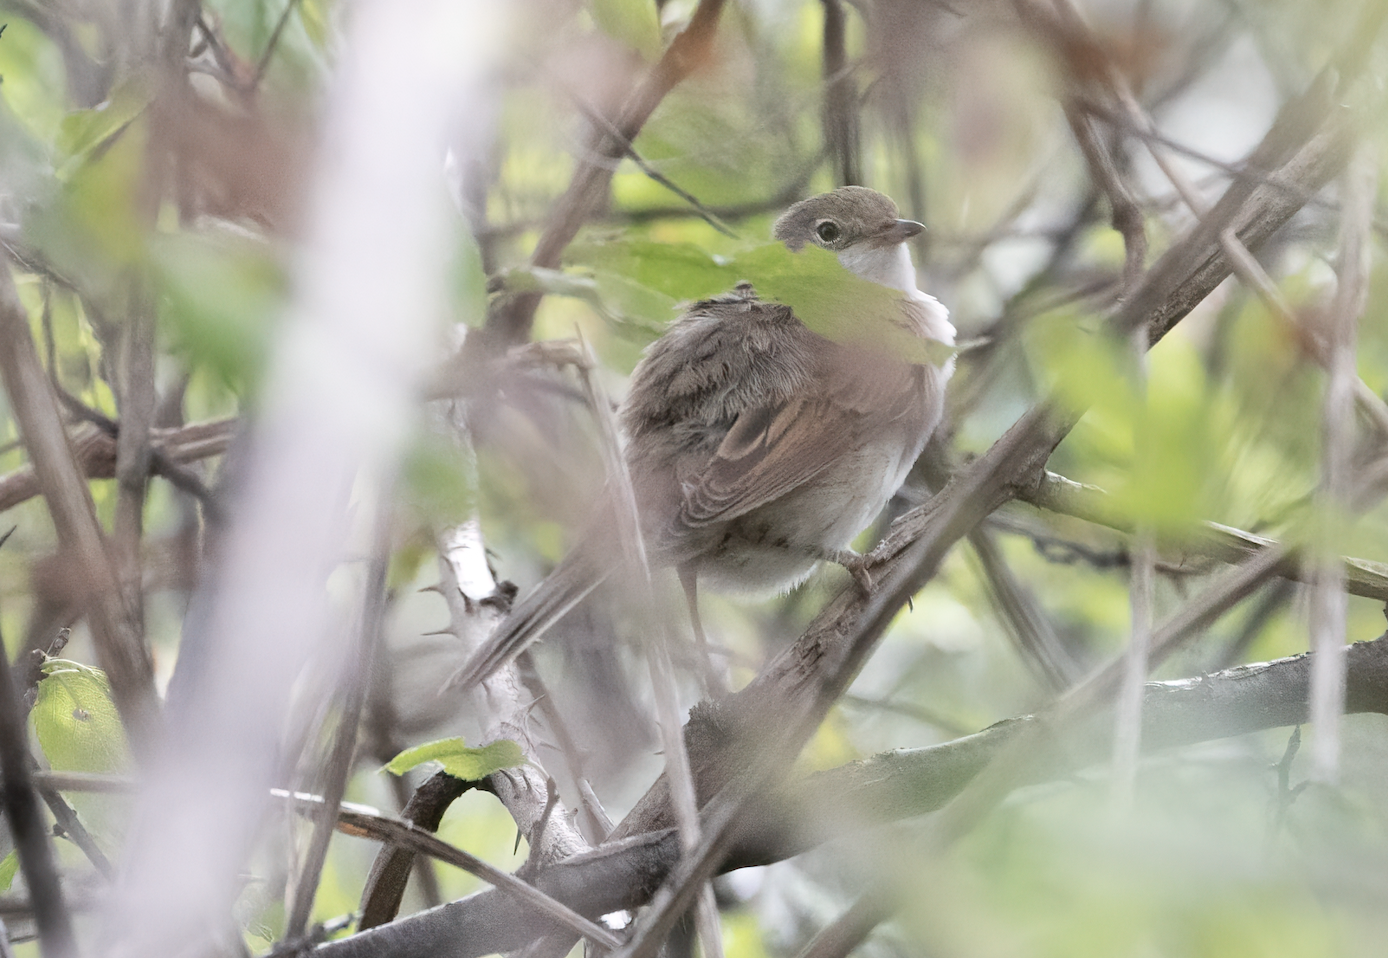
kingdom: Animalia
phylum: Chordata
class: Aves
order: Passeriformes
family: Sylviidae
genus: Sylvia
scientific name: Sylvia communis
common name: Common whitethroat
